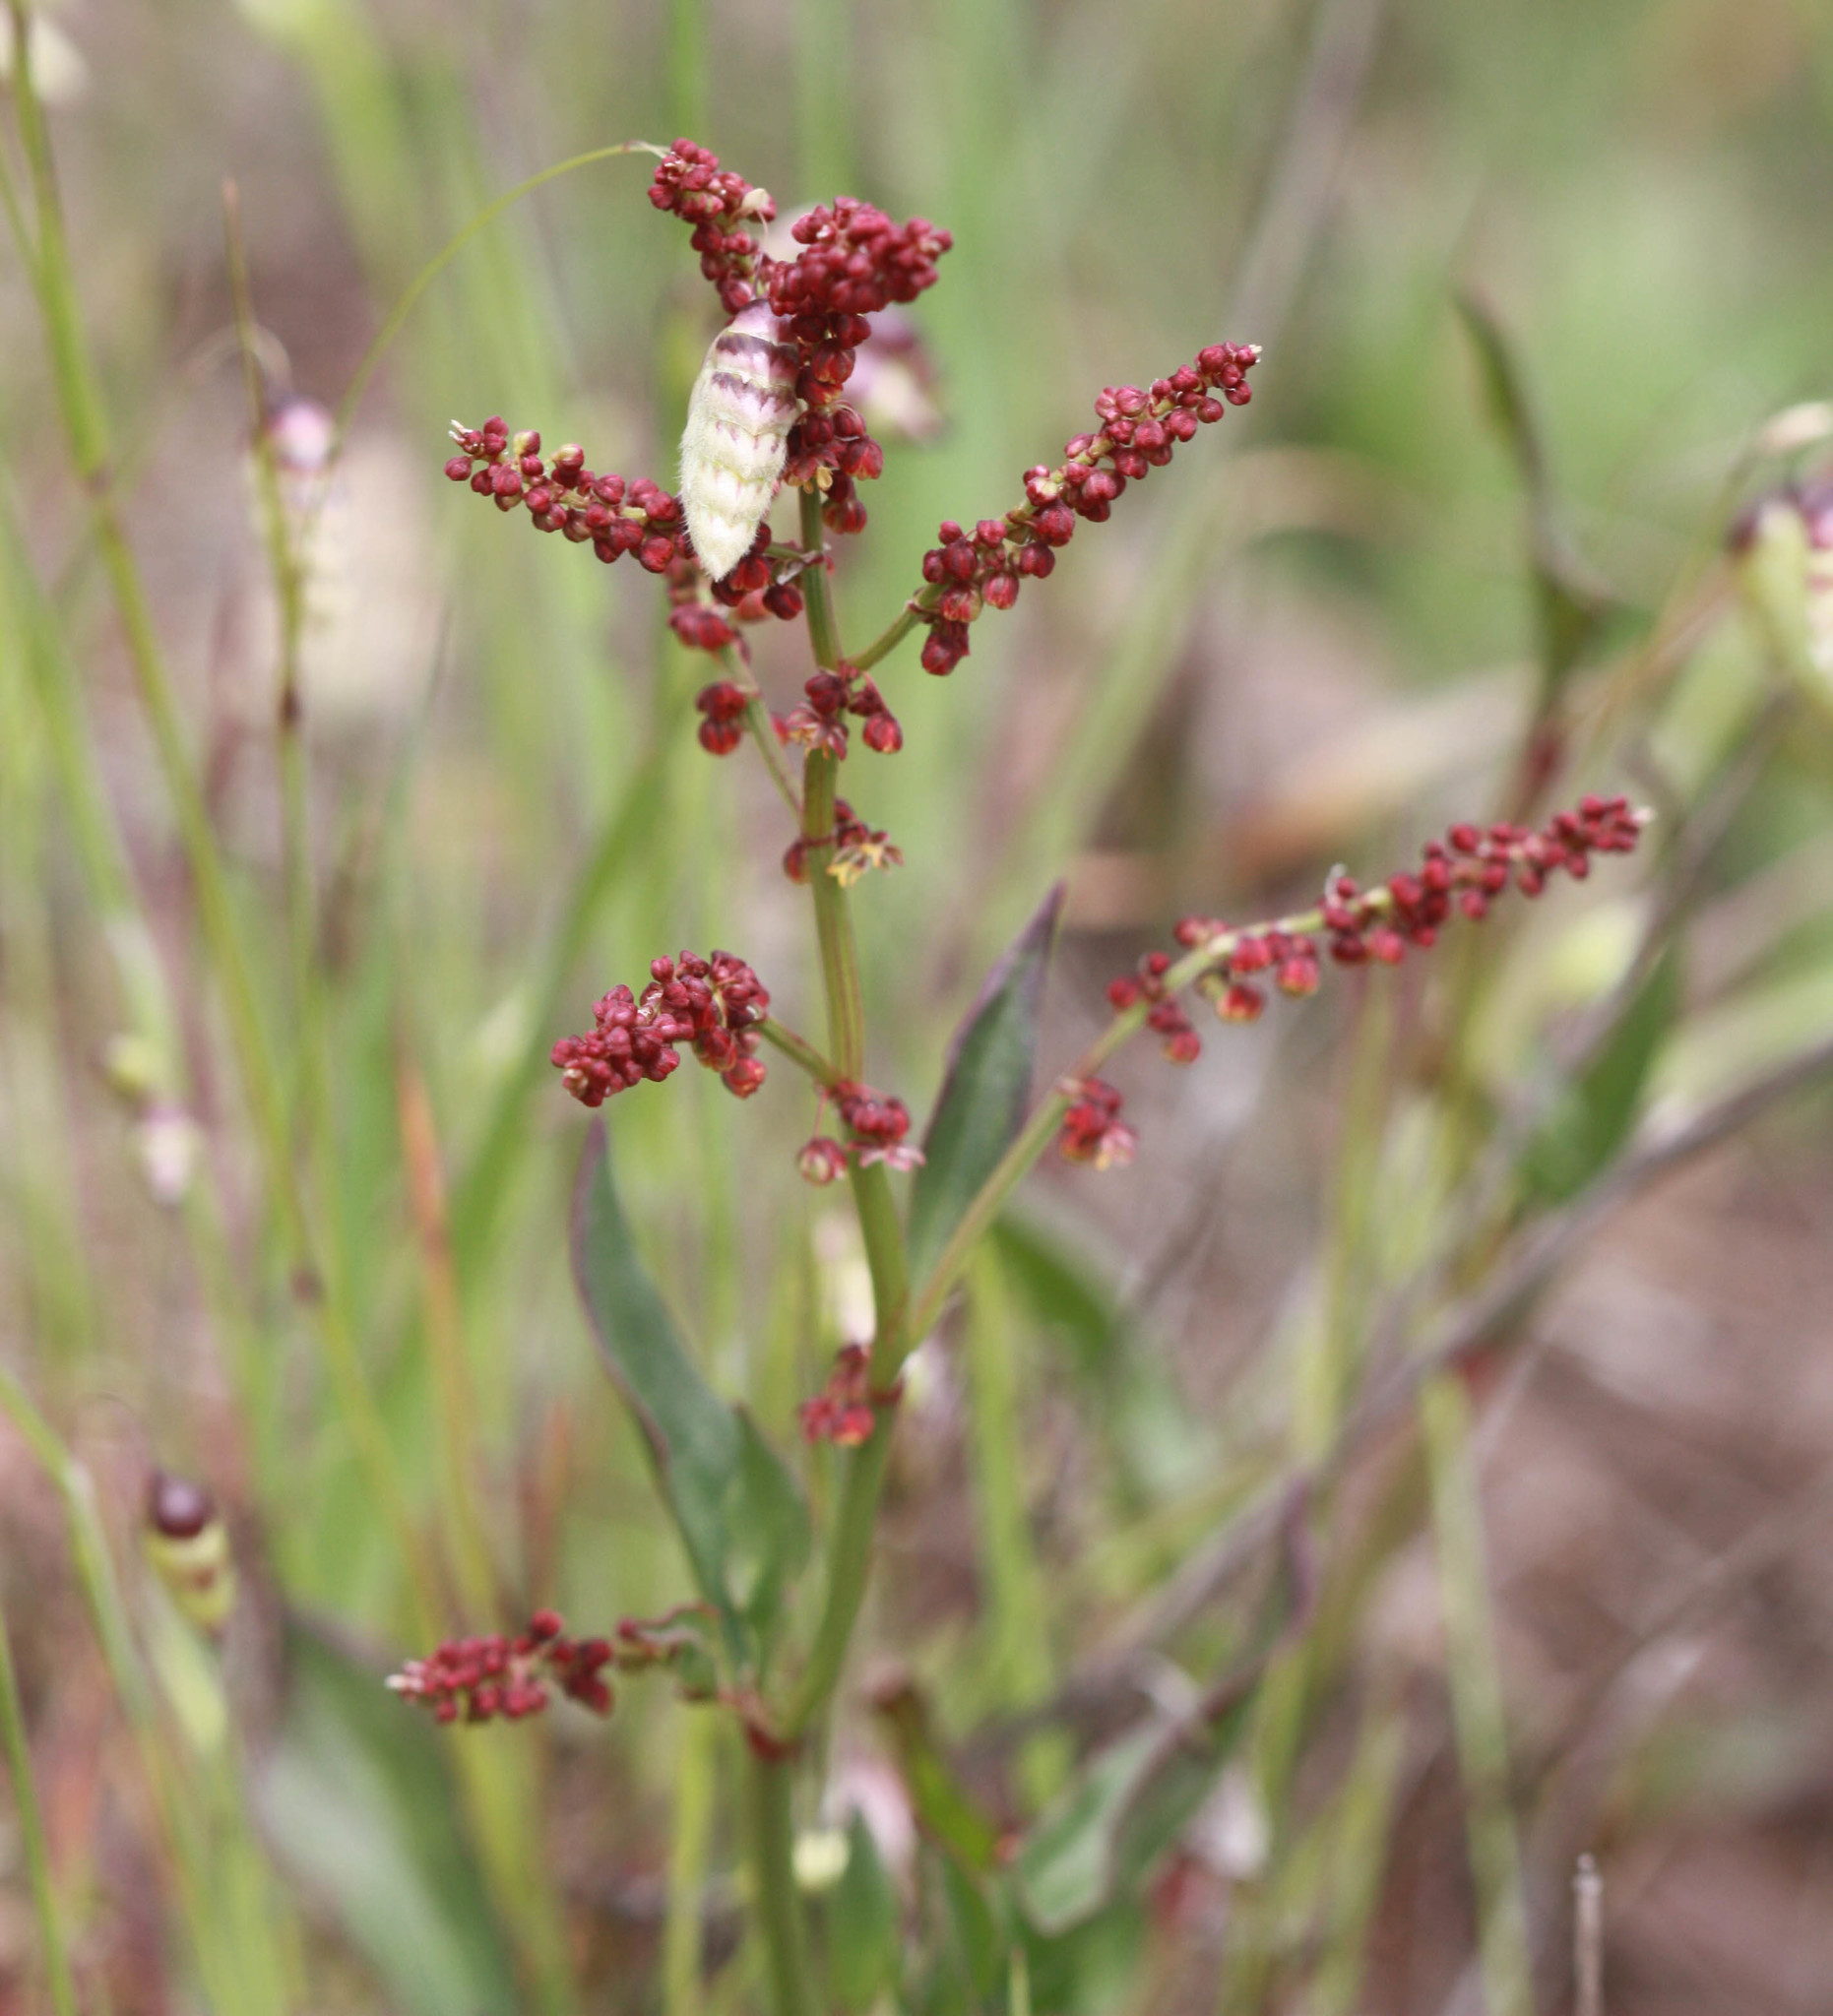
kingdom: Plantae
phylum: Tracheophyta
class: Magnoliopsida
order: Caryophyllales
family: Polygonaceae
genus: Rumex
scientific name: Rumex acetosella
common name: Common sheep sorrel
